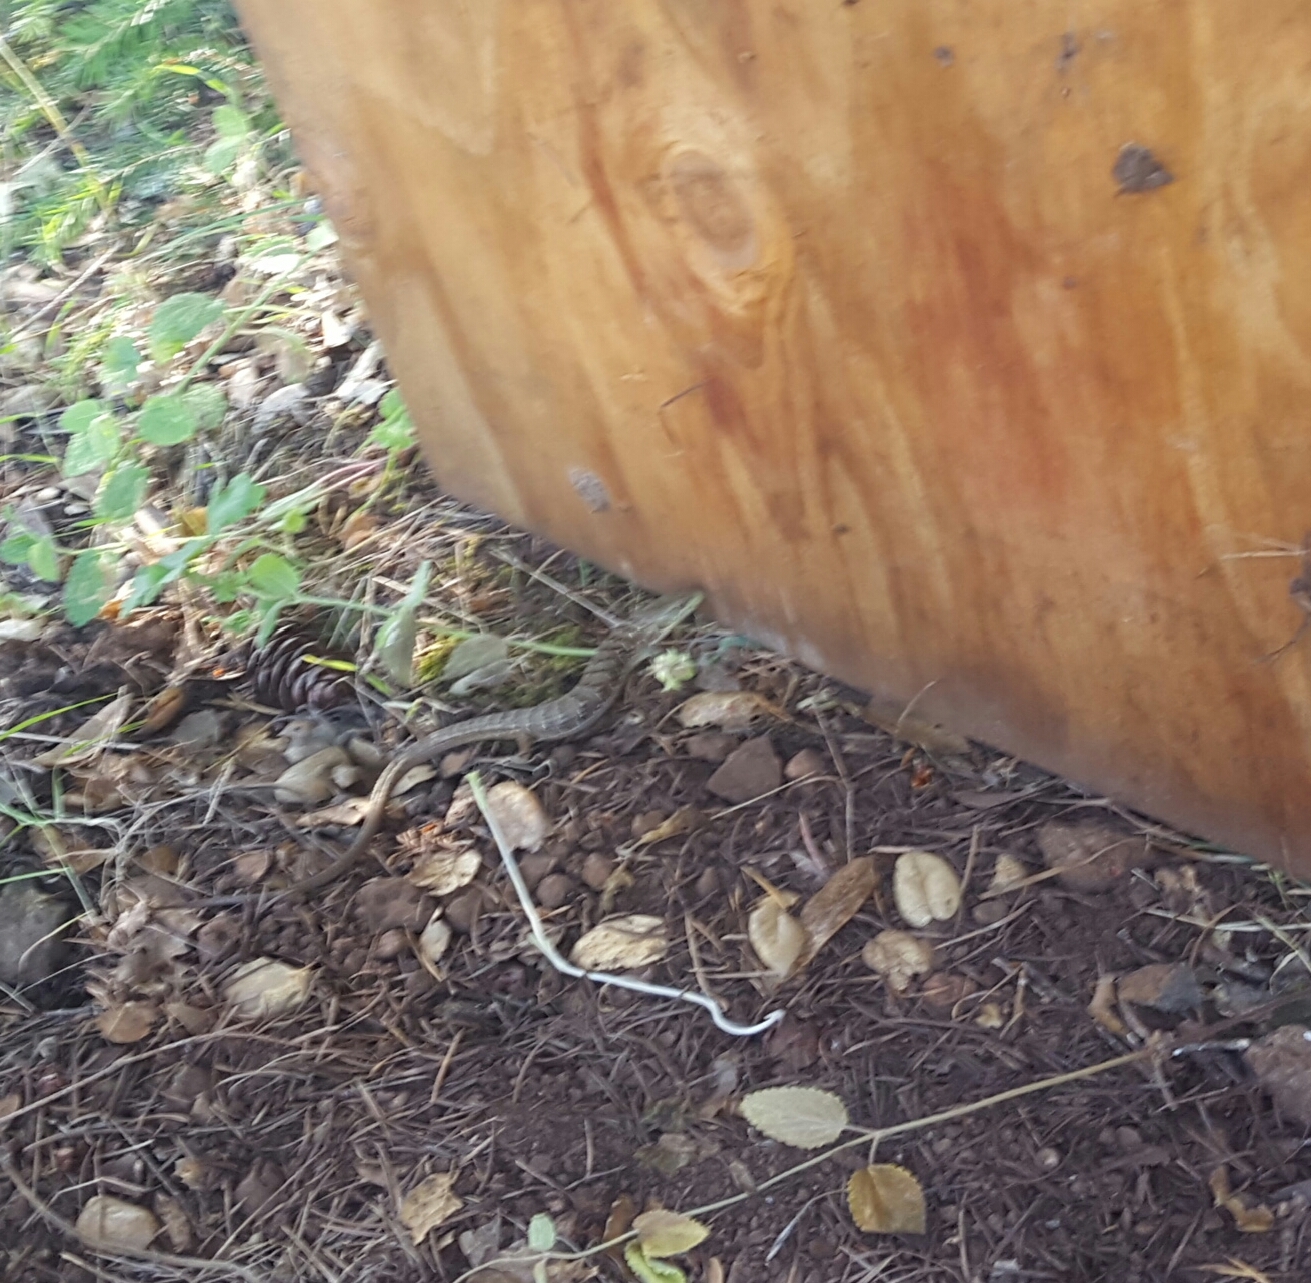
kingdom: Animalia
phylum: Chordata
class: Squamata
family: Anguidae
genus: Elgaria
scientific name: Elgaria multicarinata
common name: Southern alligator lizard
